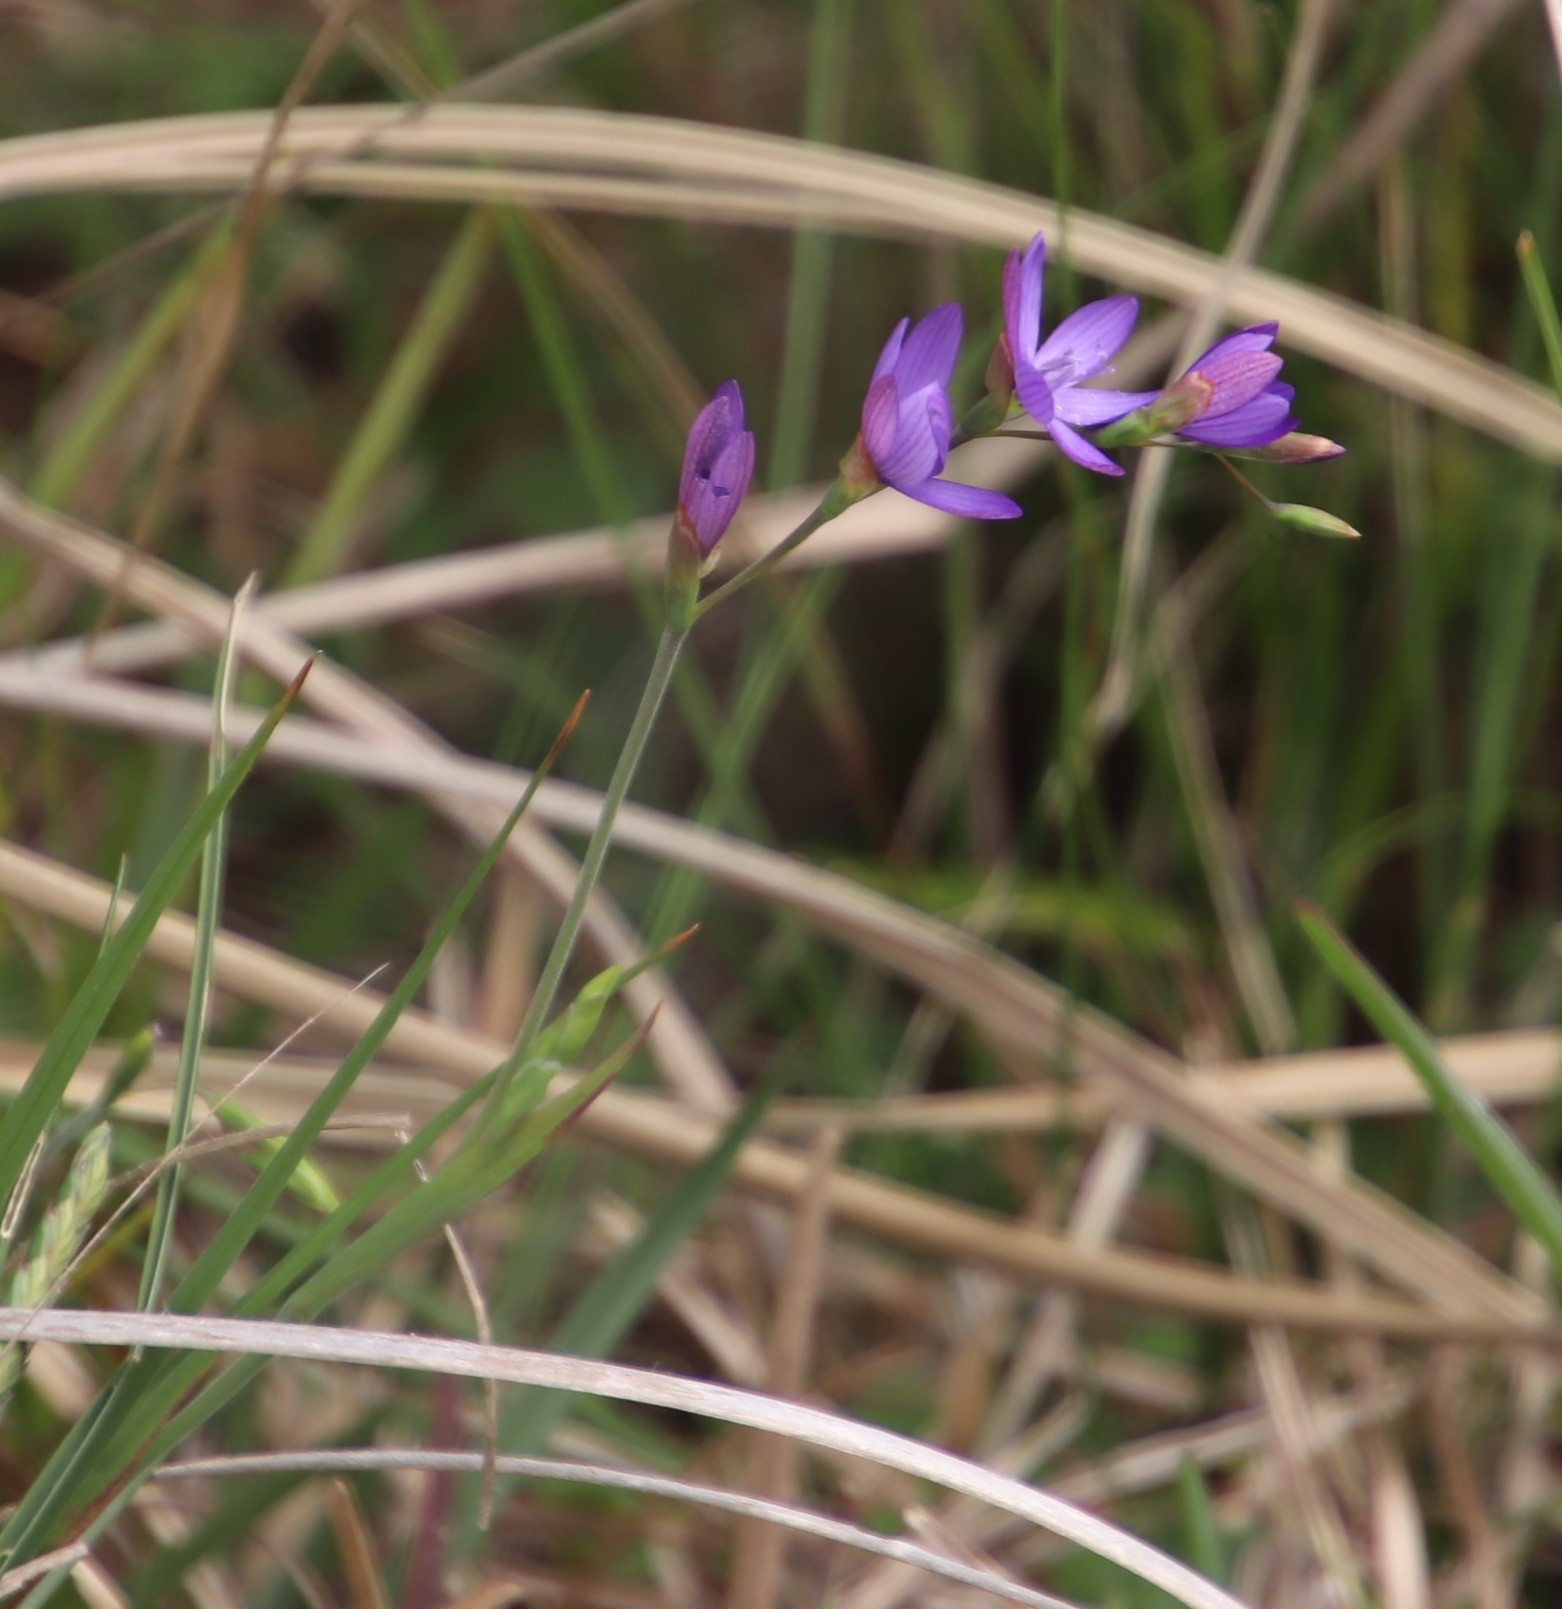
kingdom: Plantae
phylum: Tracheophyta
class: Liliopsida
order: Asparagales
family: Iridaceae
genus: Geissorhiza
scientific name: Geissorhiza aspera
